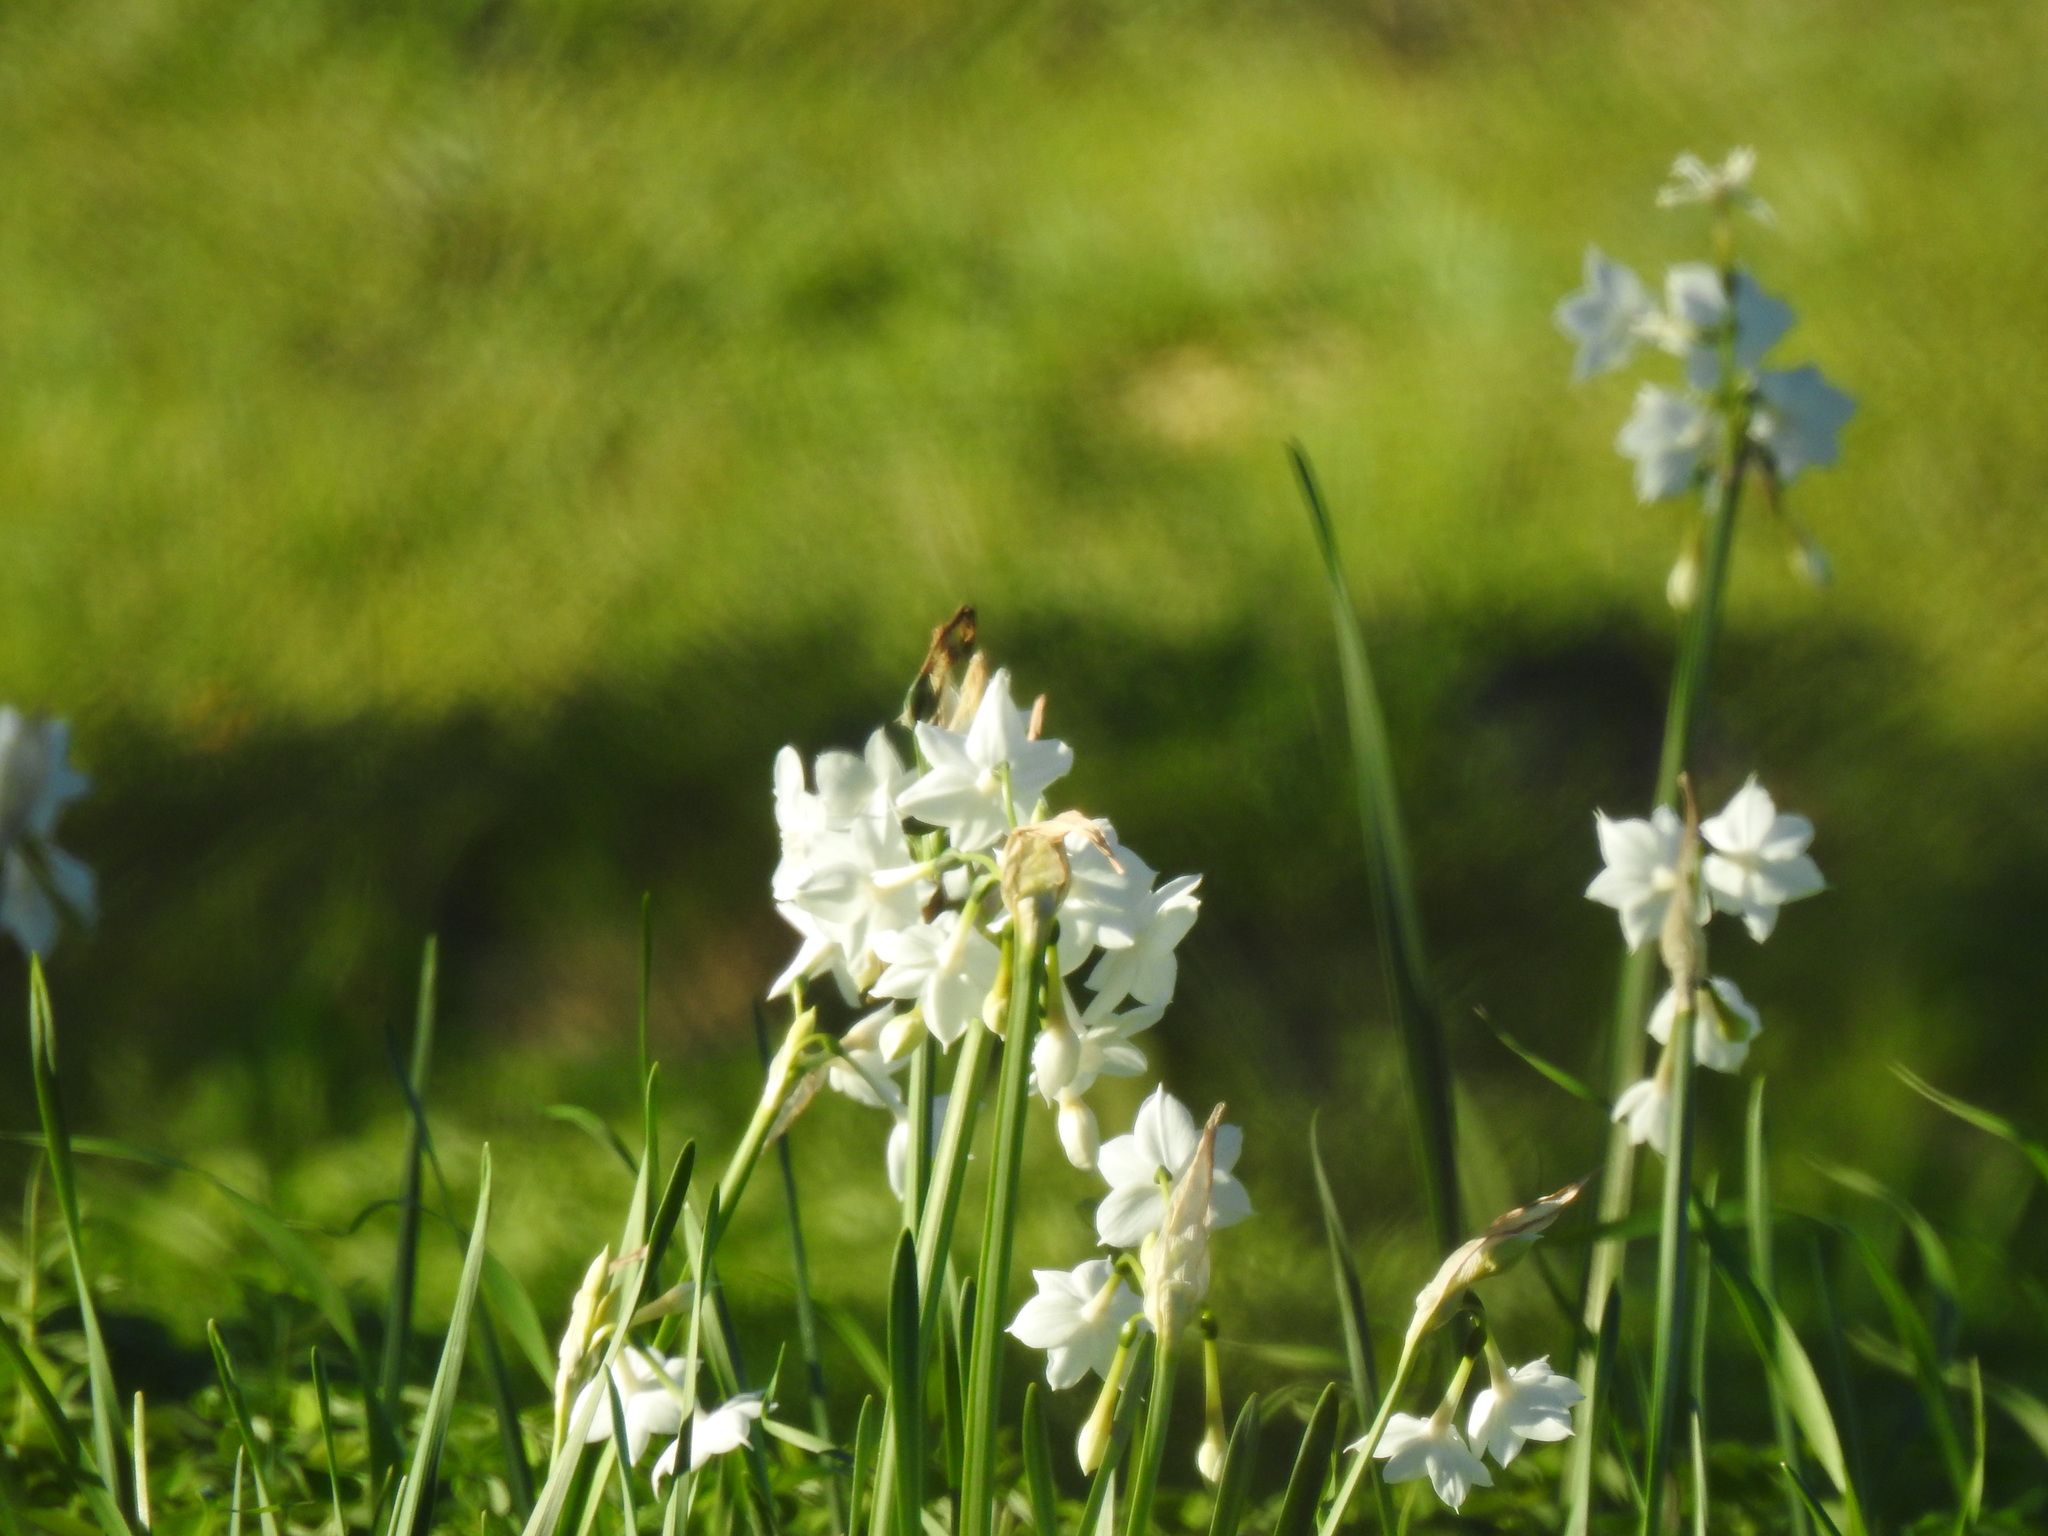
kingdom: Plantae
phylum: Tracheophyta
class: Liliopsida
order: Asparagales
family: Amaryllidaceae
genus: Narcissus
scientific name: Narcissus papyraceus
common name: Paper-white daffodil
